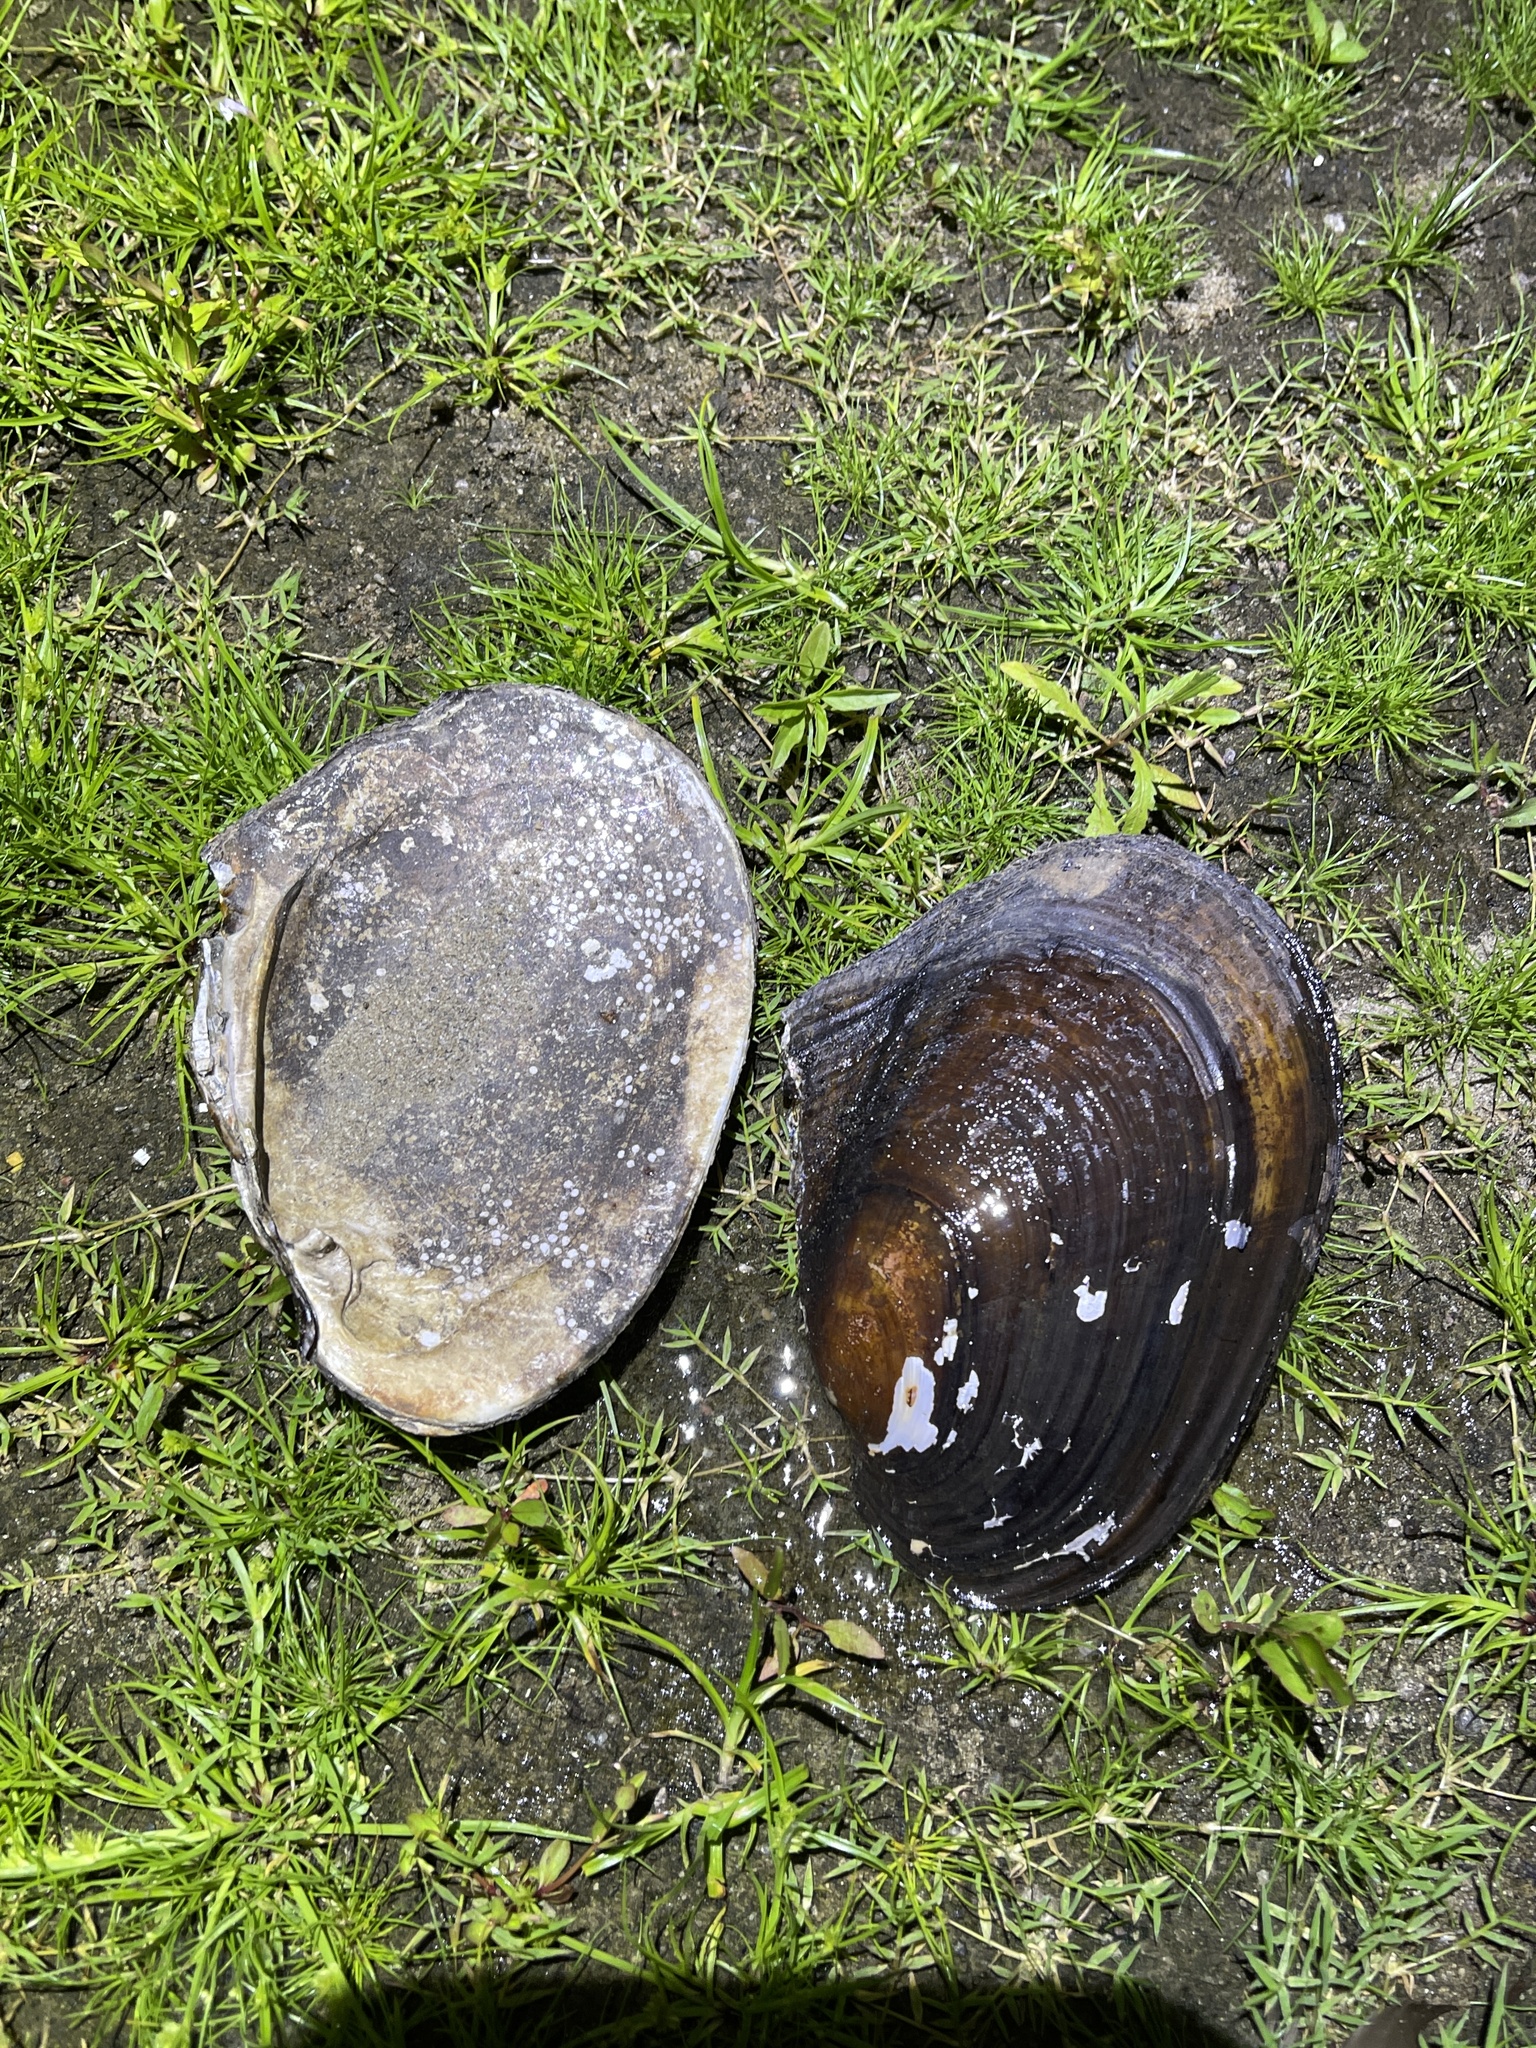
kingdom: Animalia
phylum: Mollusca
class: Bivalvia
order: Unionida
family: Unionidae
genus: Potamilus
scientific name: Potamilus alatus
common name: Pink heelsplitter
